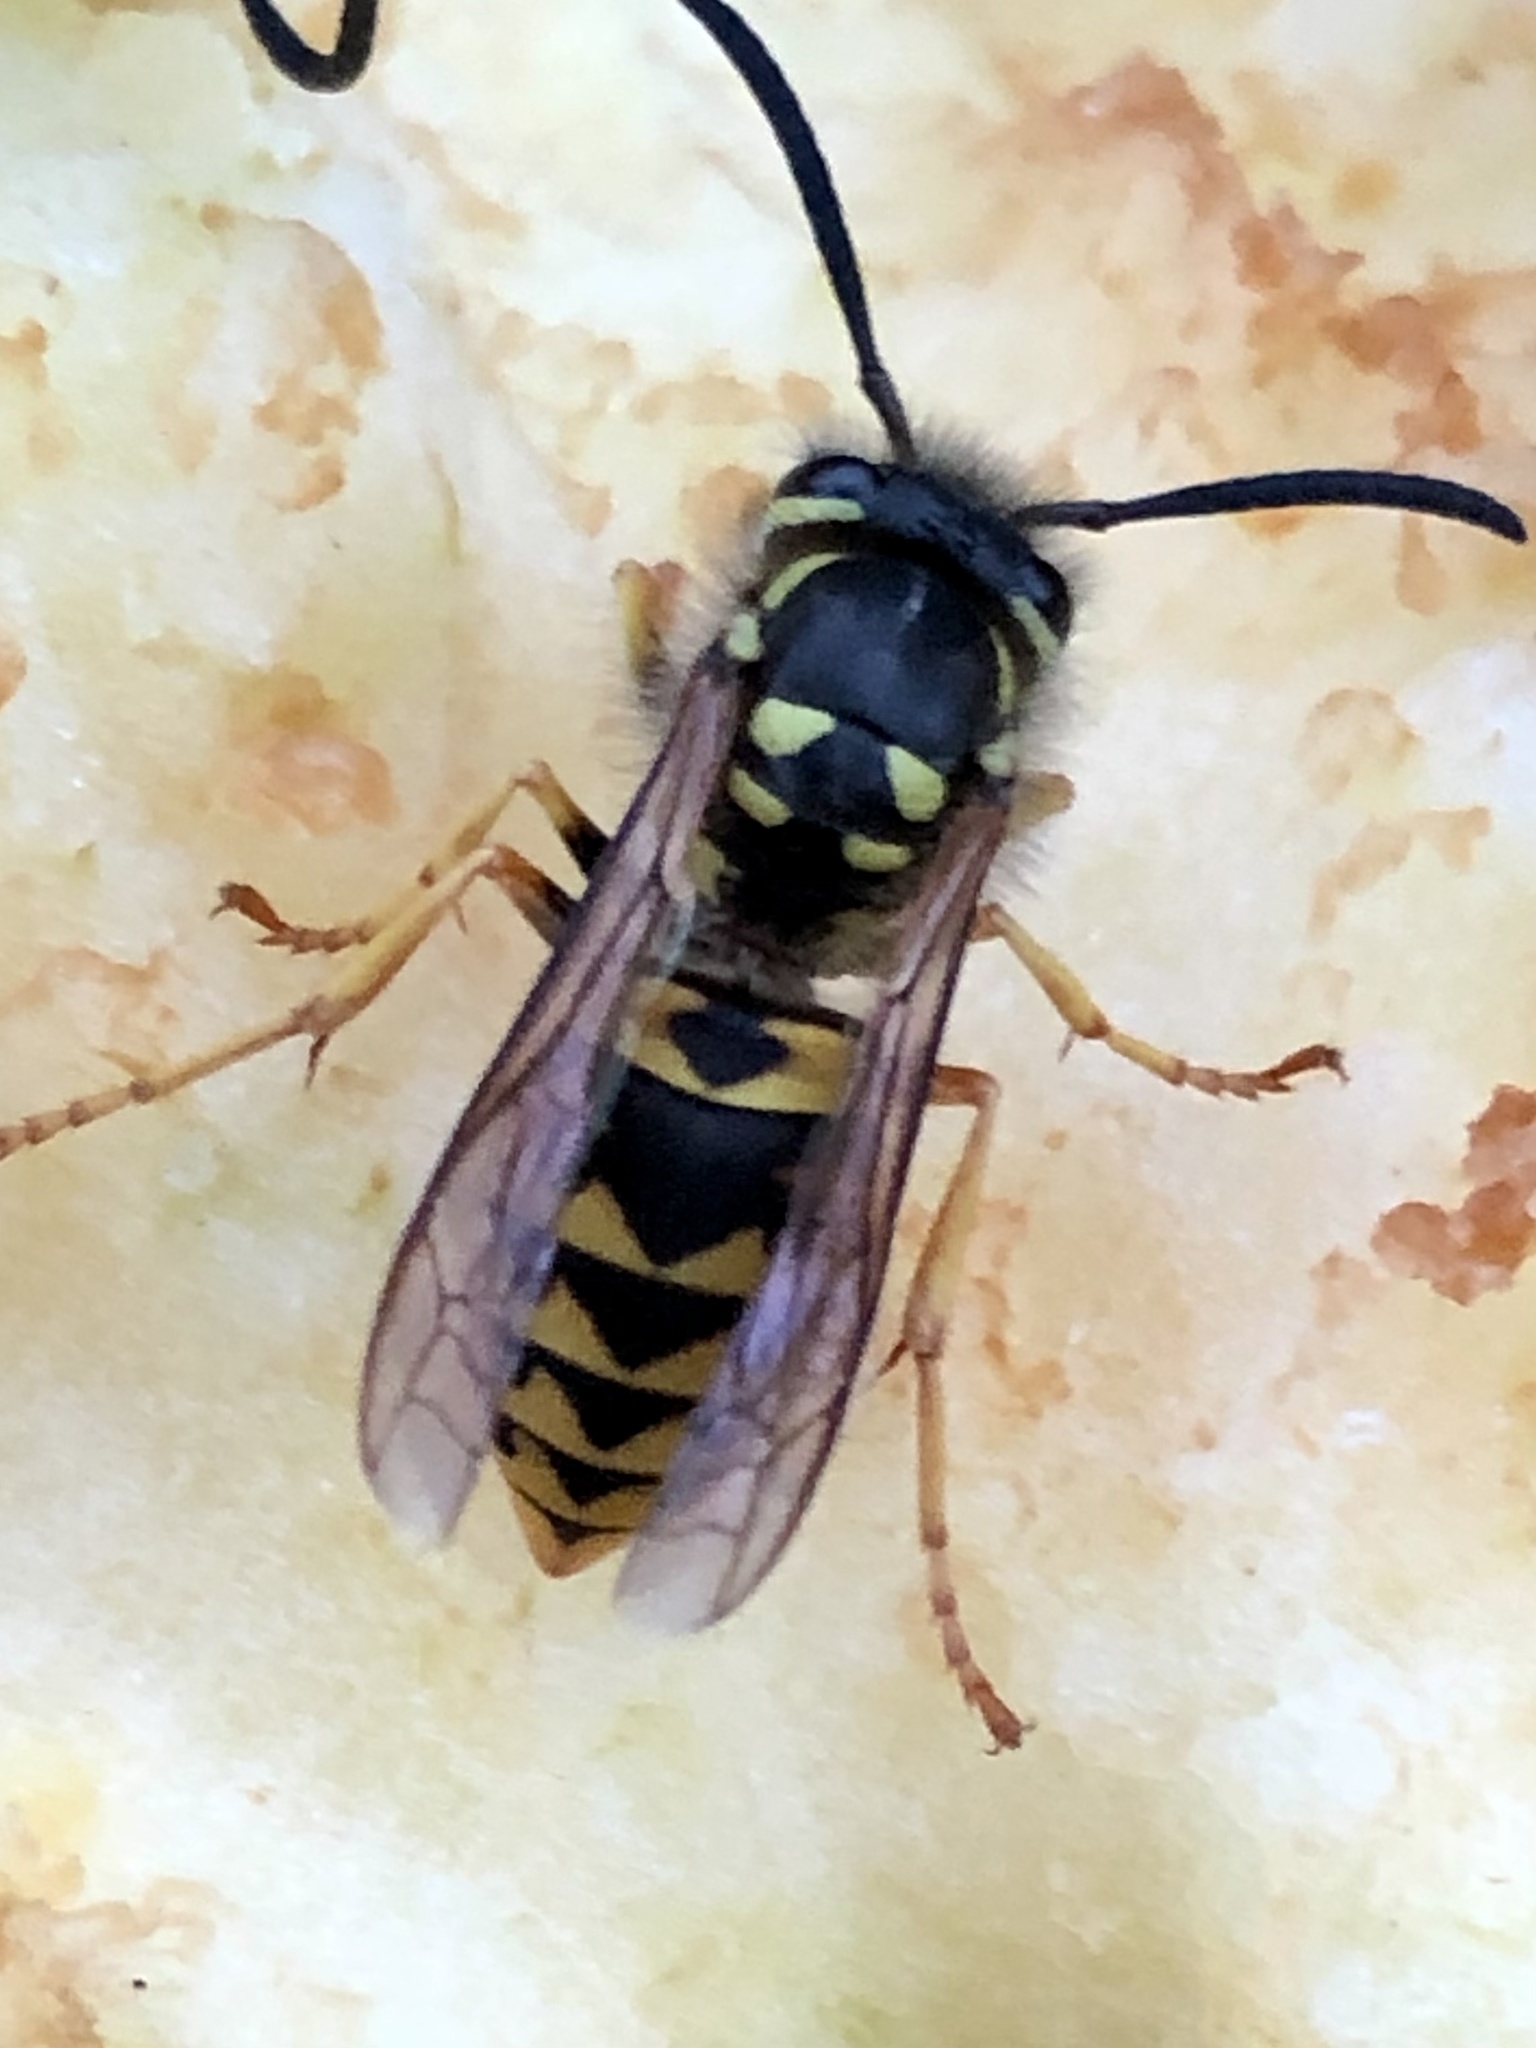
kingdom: Animalia
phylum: Arthropoda
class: Insecta
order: Hymenoptera
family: Vespidae
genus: Vespula
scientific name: Vespula germanica
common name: German wasp
